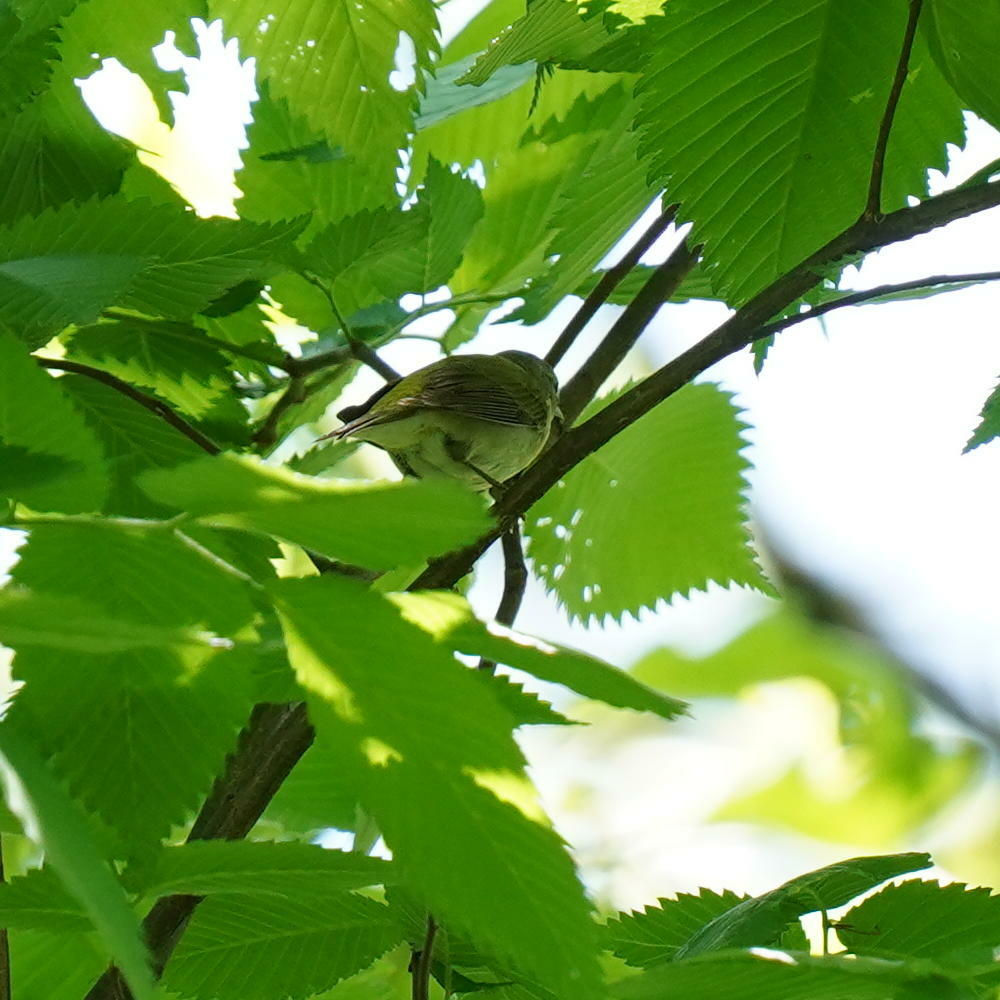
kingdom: Animalia
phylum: Chordata
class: Aves
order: Passeriformes
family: Parulidae
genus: Leiothlypis
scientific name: Leiothlypis peregrina
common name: Tennessee warbler
